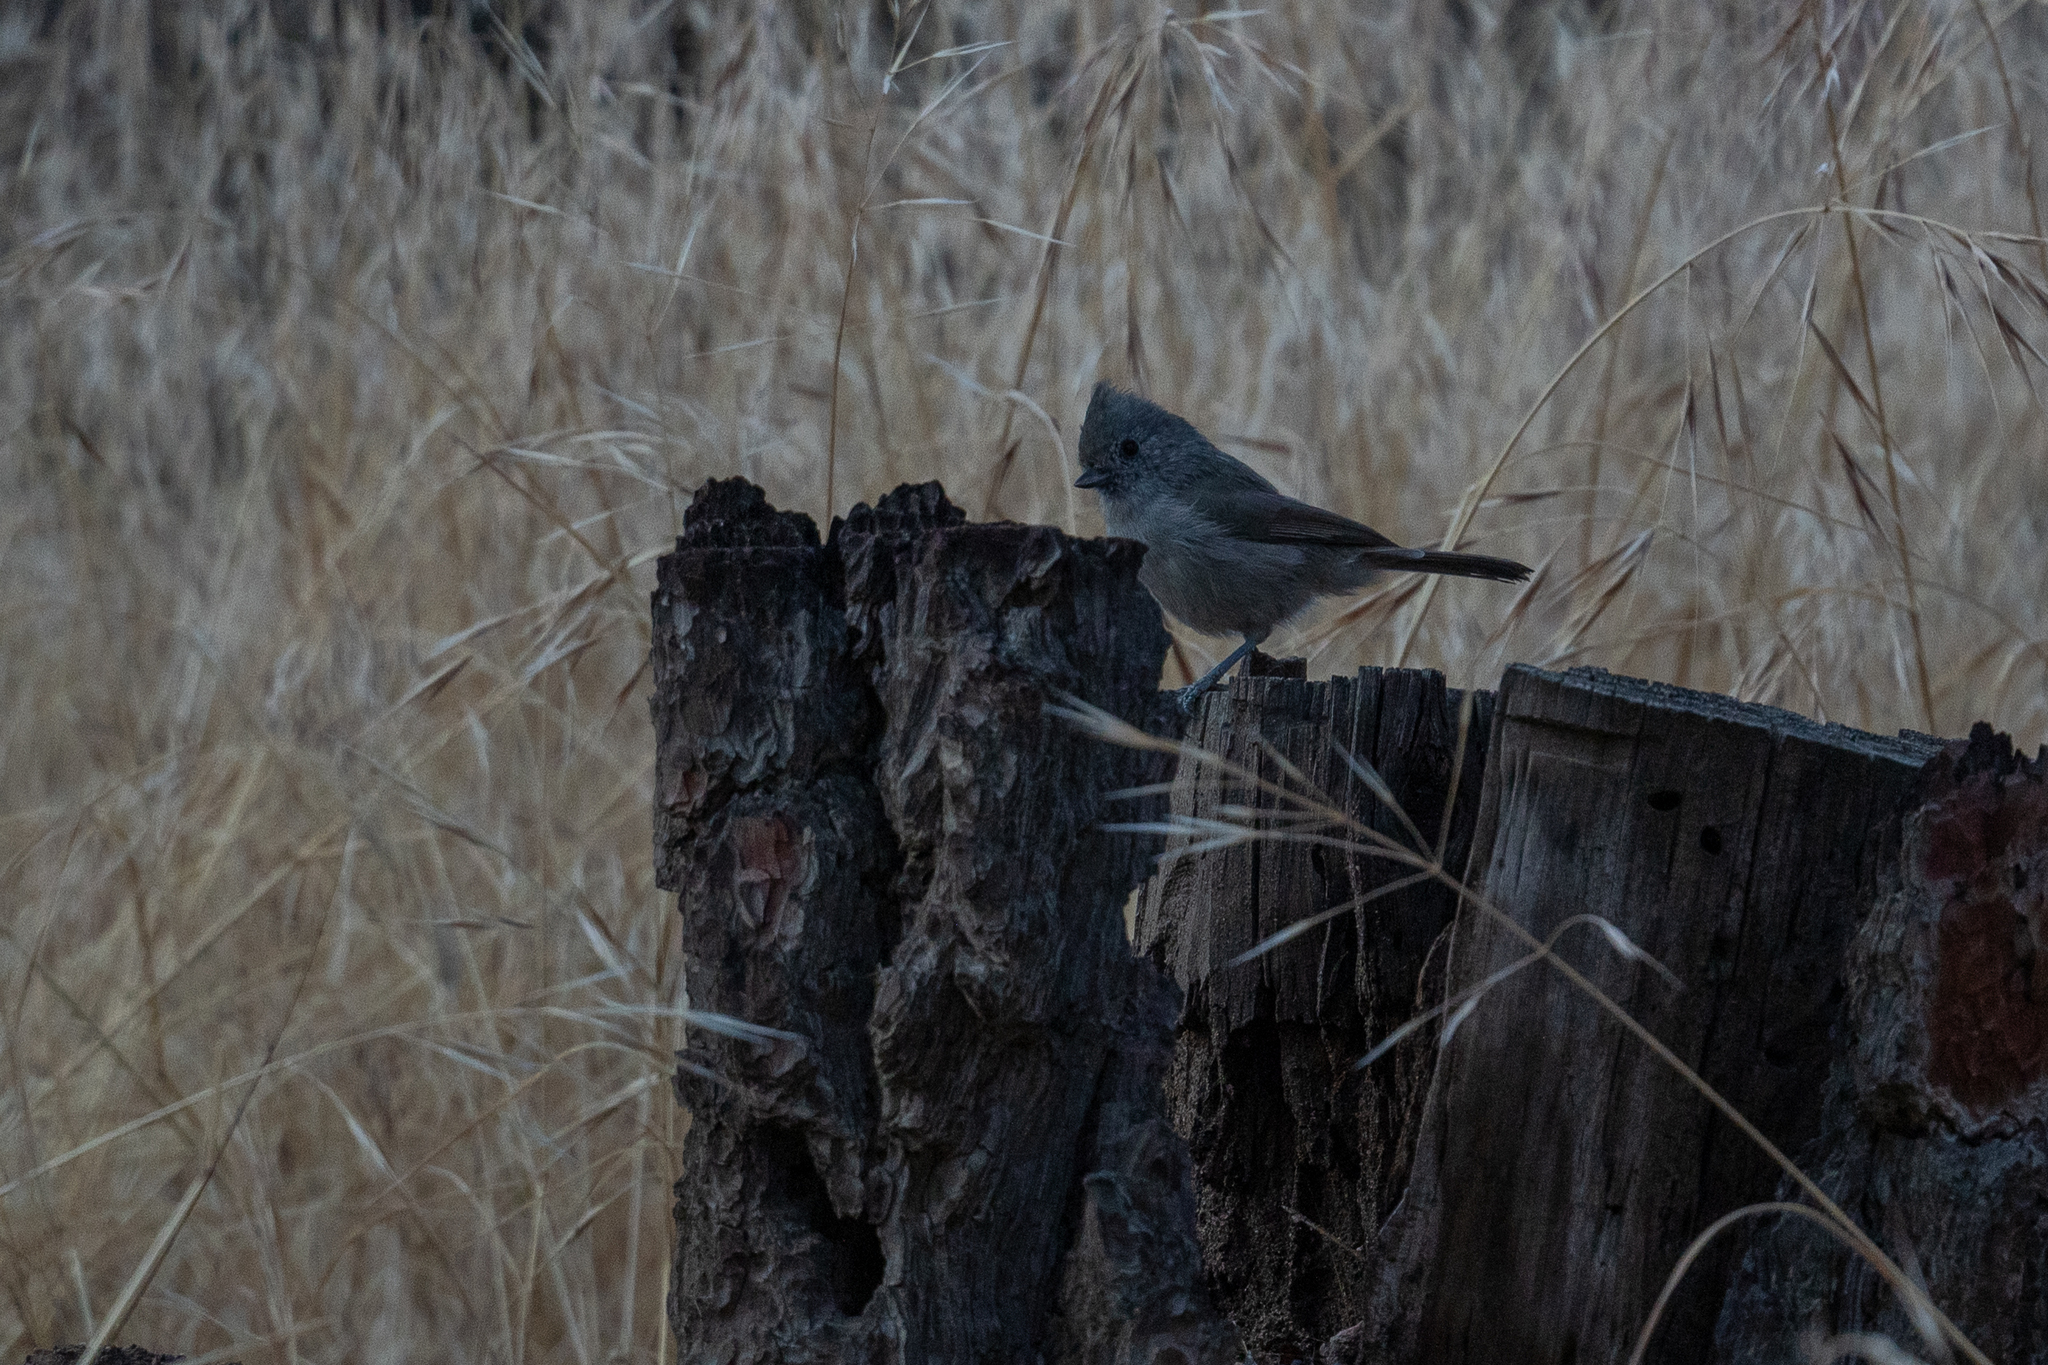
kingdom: Animalia
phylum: Chordata
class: Aves
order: Passeriformes
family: Paridae
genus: Baeolophus
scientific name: Baeolophus inornatus
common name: Oak titmouse
